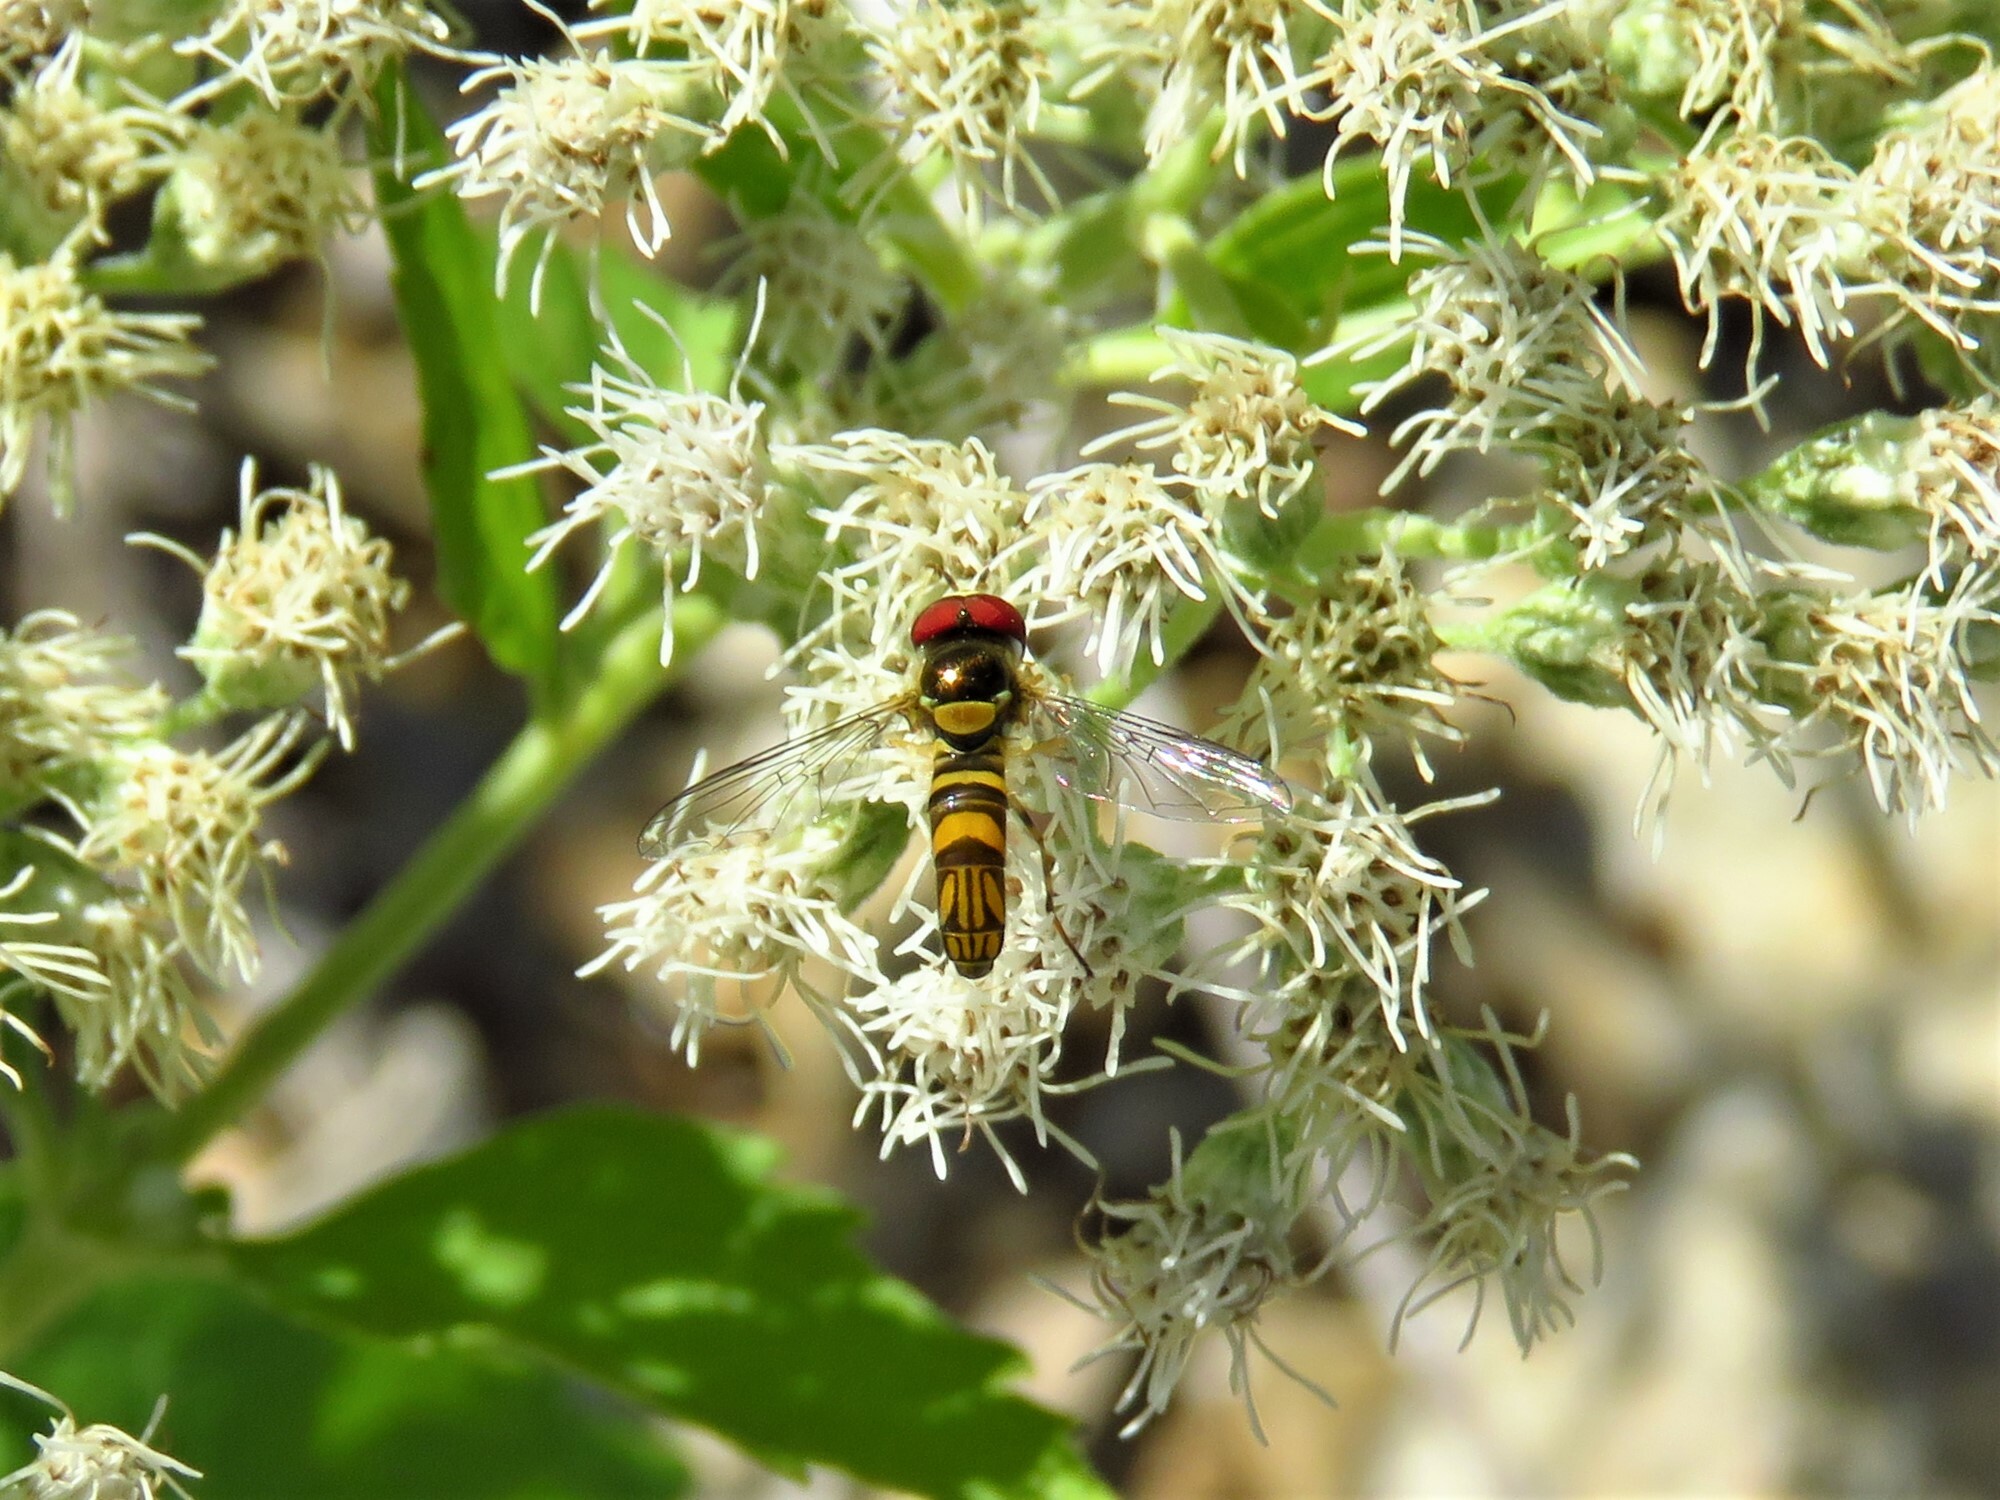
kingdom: Animalia
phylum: Arthropoda
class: Insecta
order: Diptera
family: Syrphidae
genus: Allograpta
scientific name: Allograpta obliqua
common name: Common oblique syrphid
